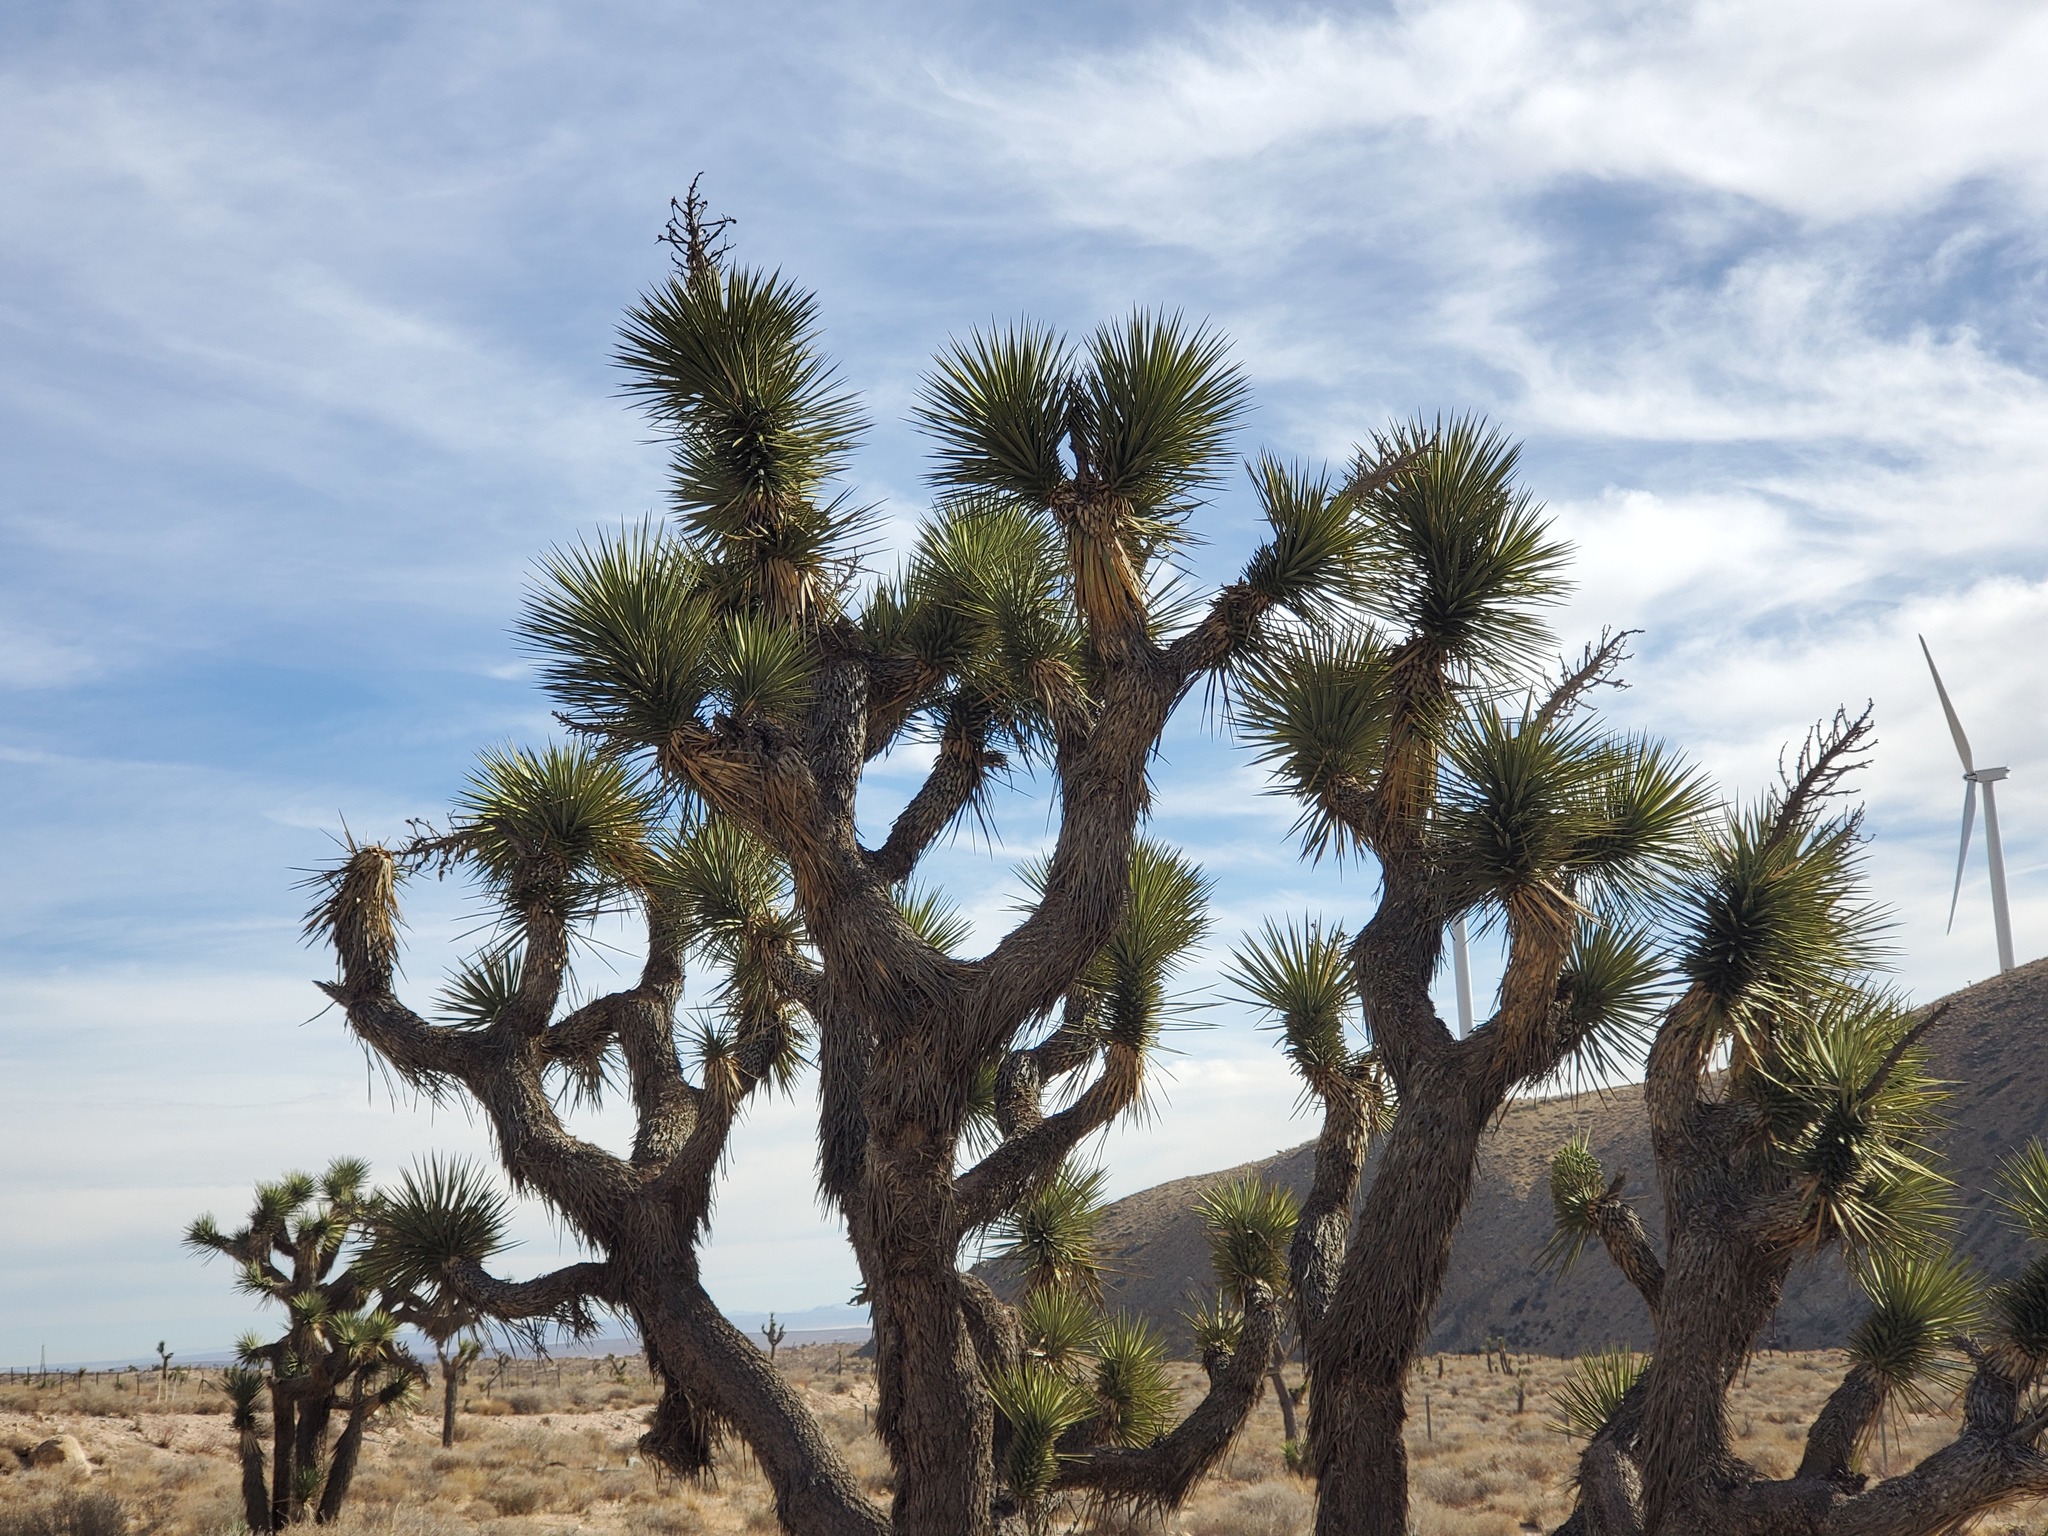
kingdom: Plantae
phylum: Tracheophyta
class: Liliopsida
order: Asparagales
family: Asparagaceae
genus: Yucca
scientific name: Yucca brevifolia
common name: Joshua tree
